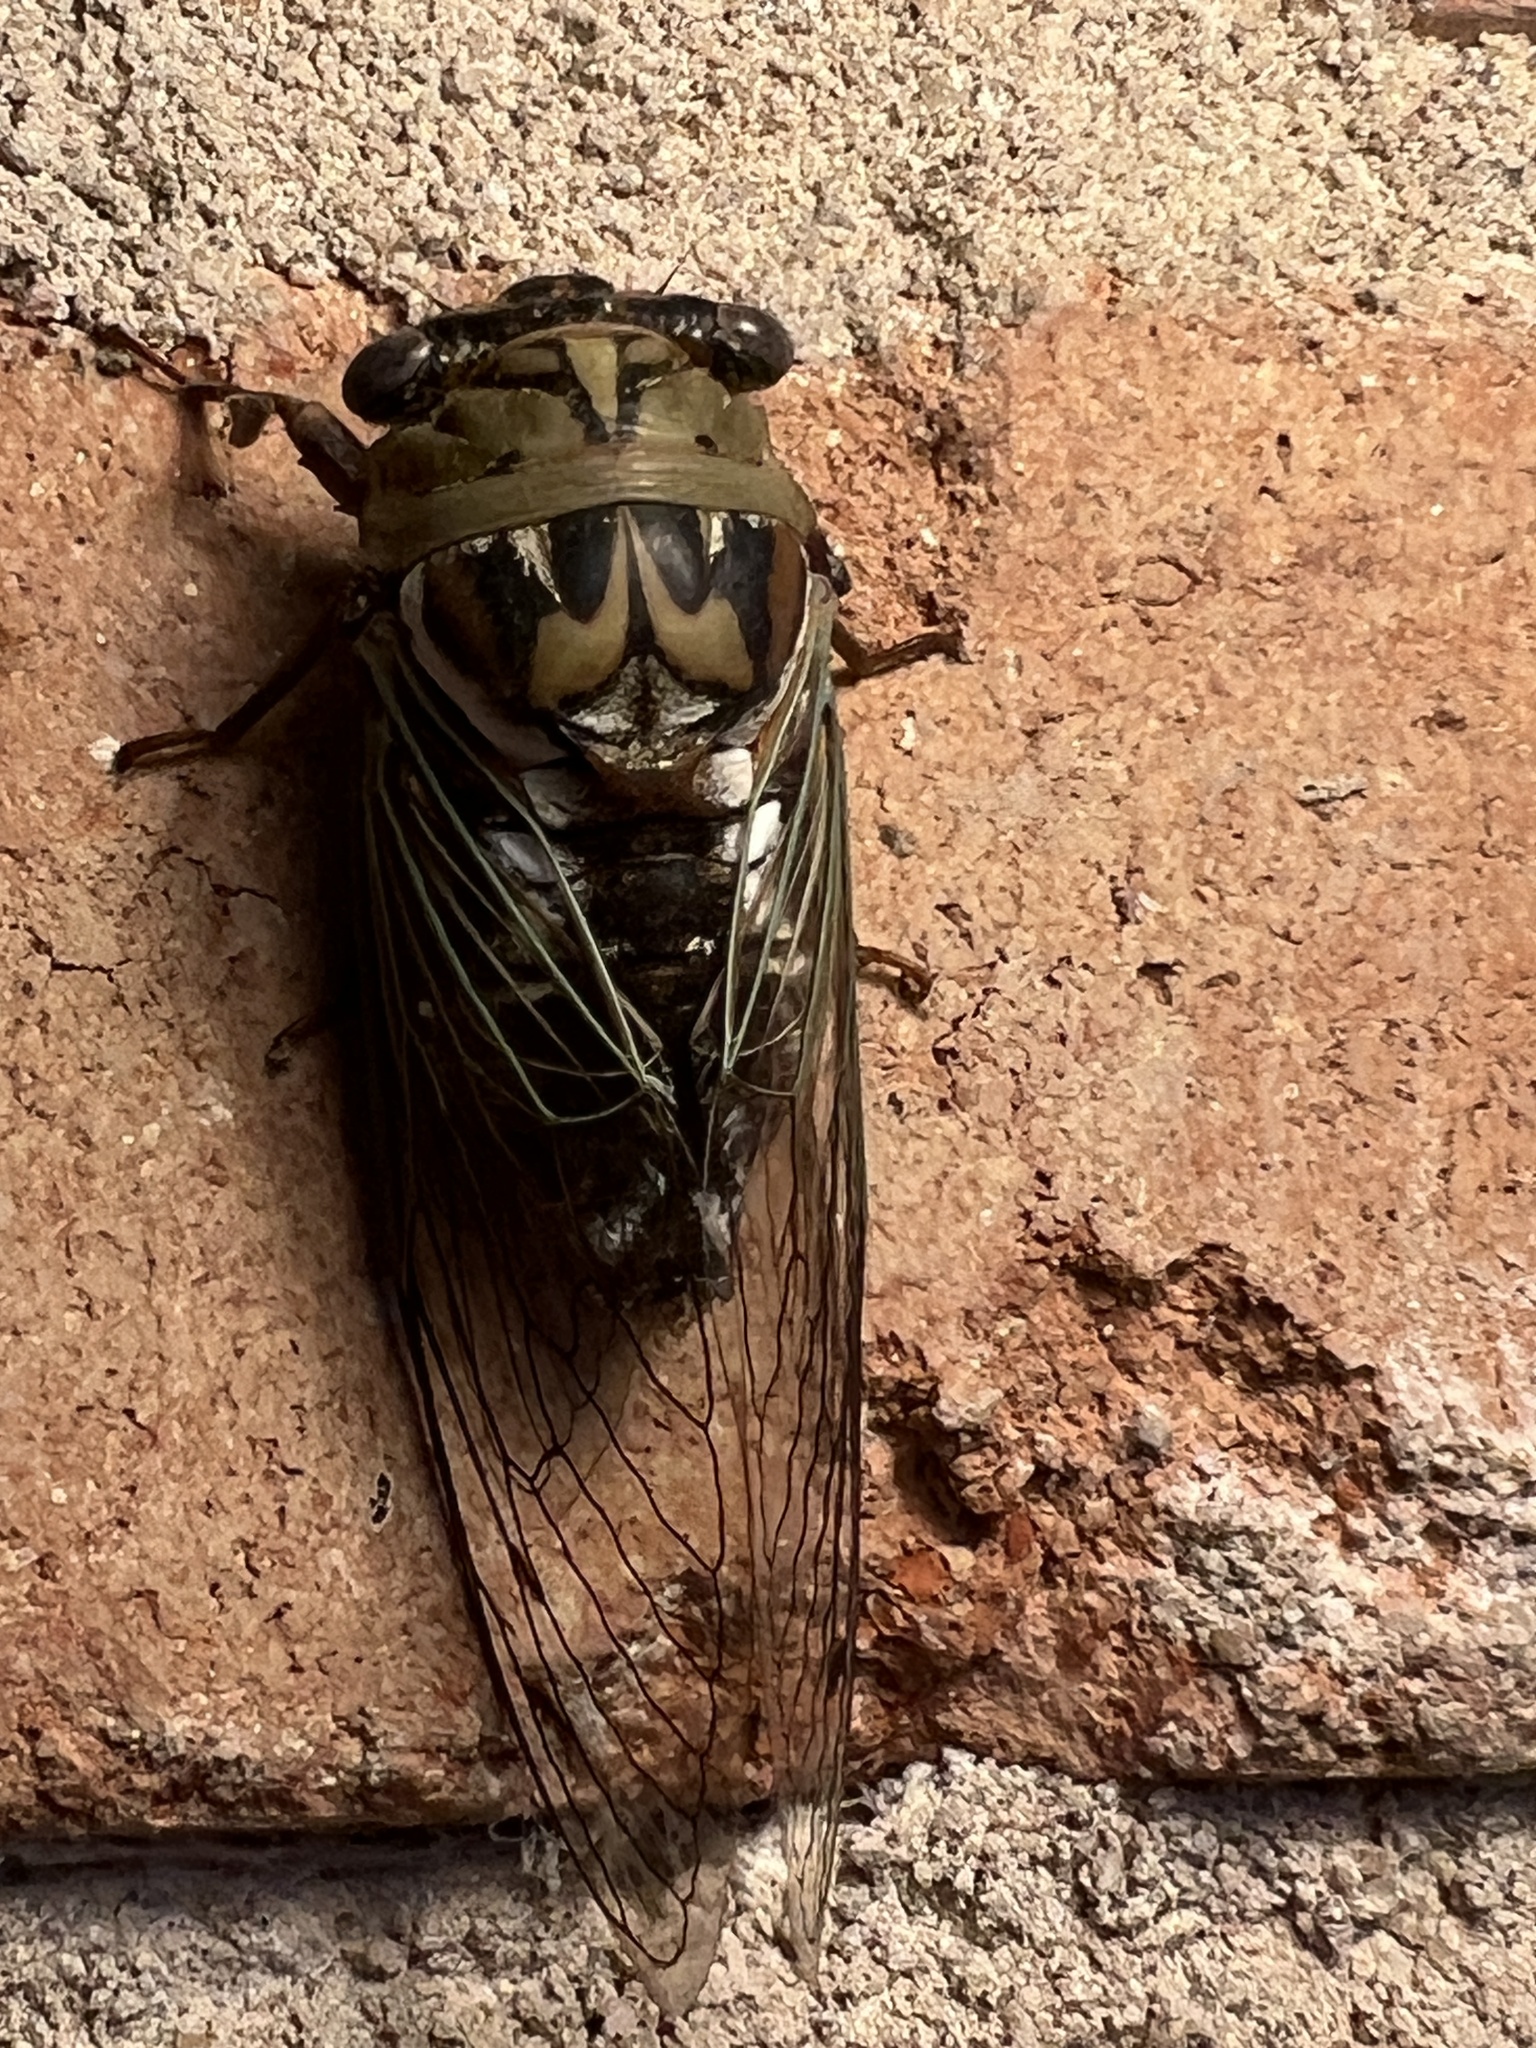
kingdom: Animalia
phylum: Arthropoda
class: Insecta
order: Hemiptera
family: Cicadidae
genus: Megatibicen
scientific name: Megatibicen resh
